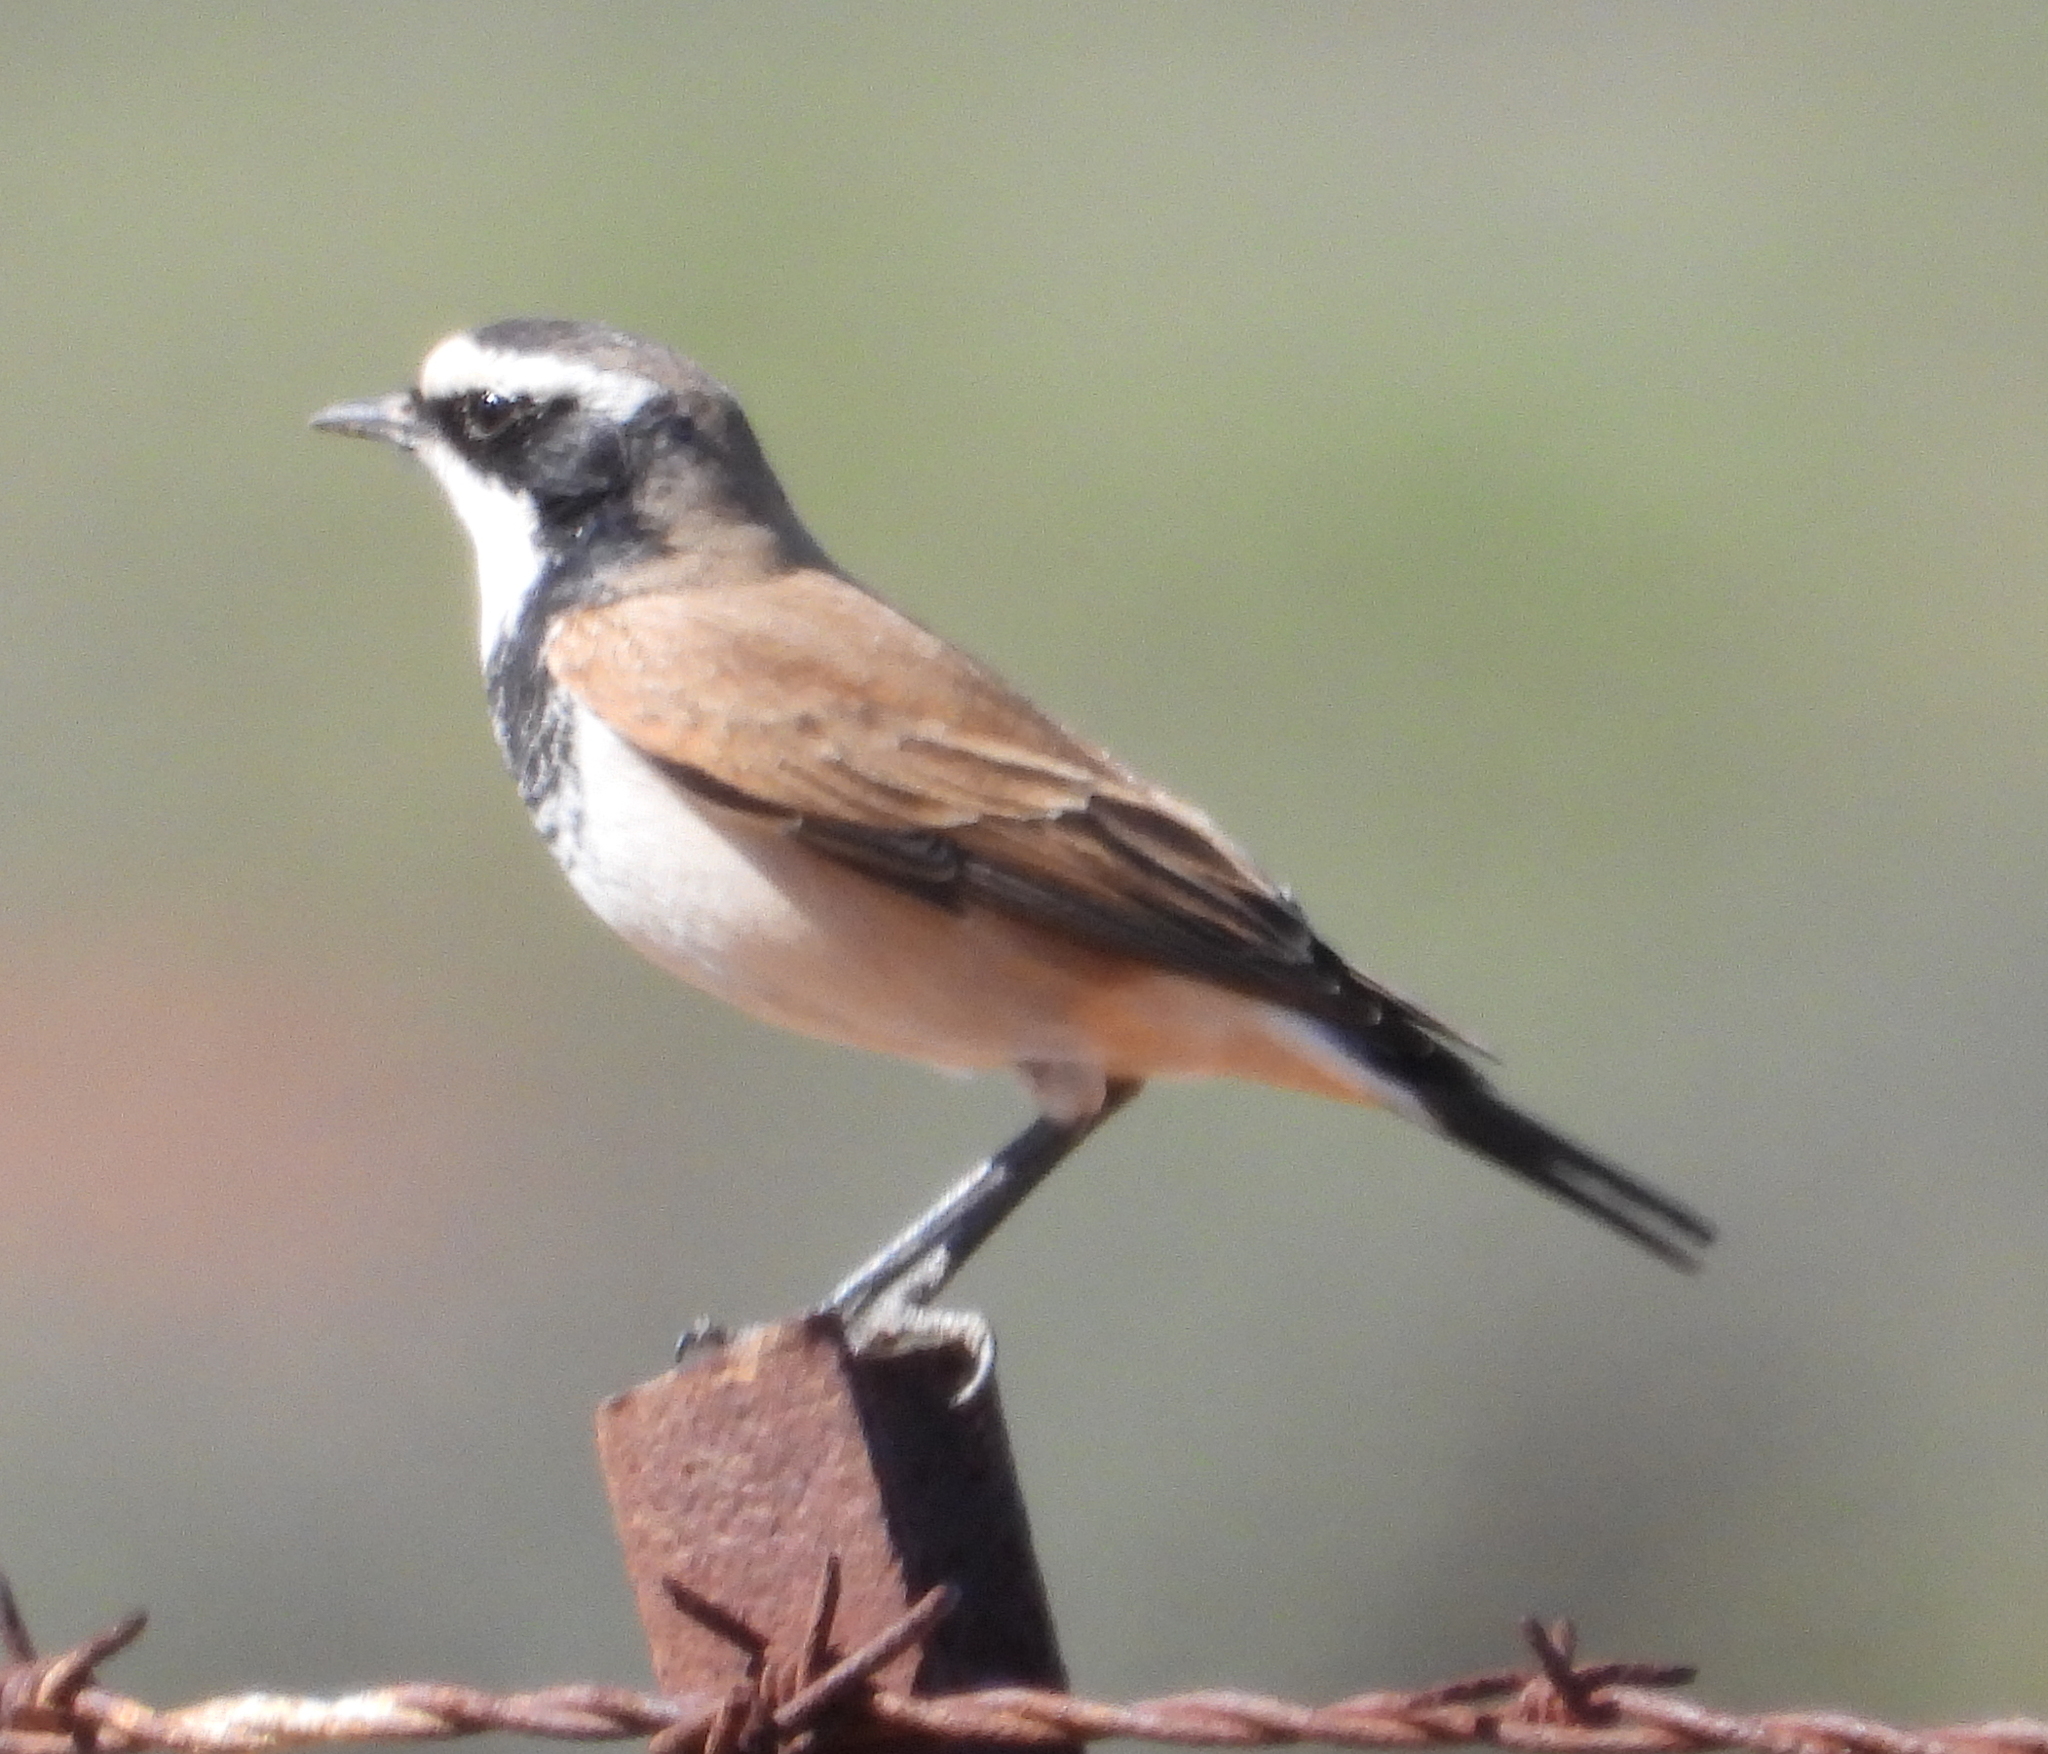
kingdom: Animalia
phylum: Chordata
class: Aves
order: Passeriformes
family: Muscicapidae
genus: Oenanthe
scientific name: Oenanthe pileata
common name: Capped wheatear
